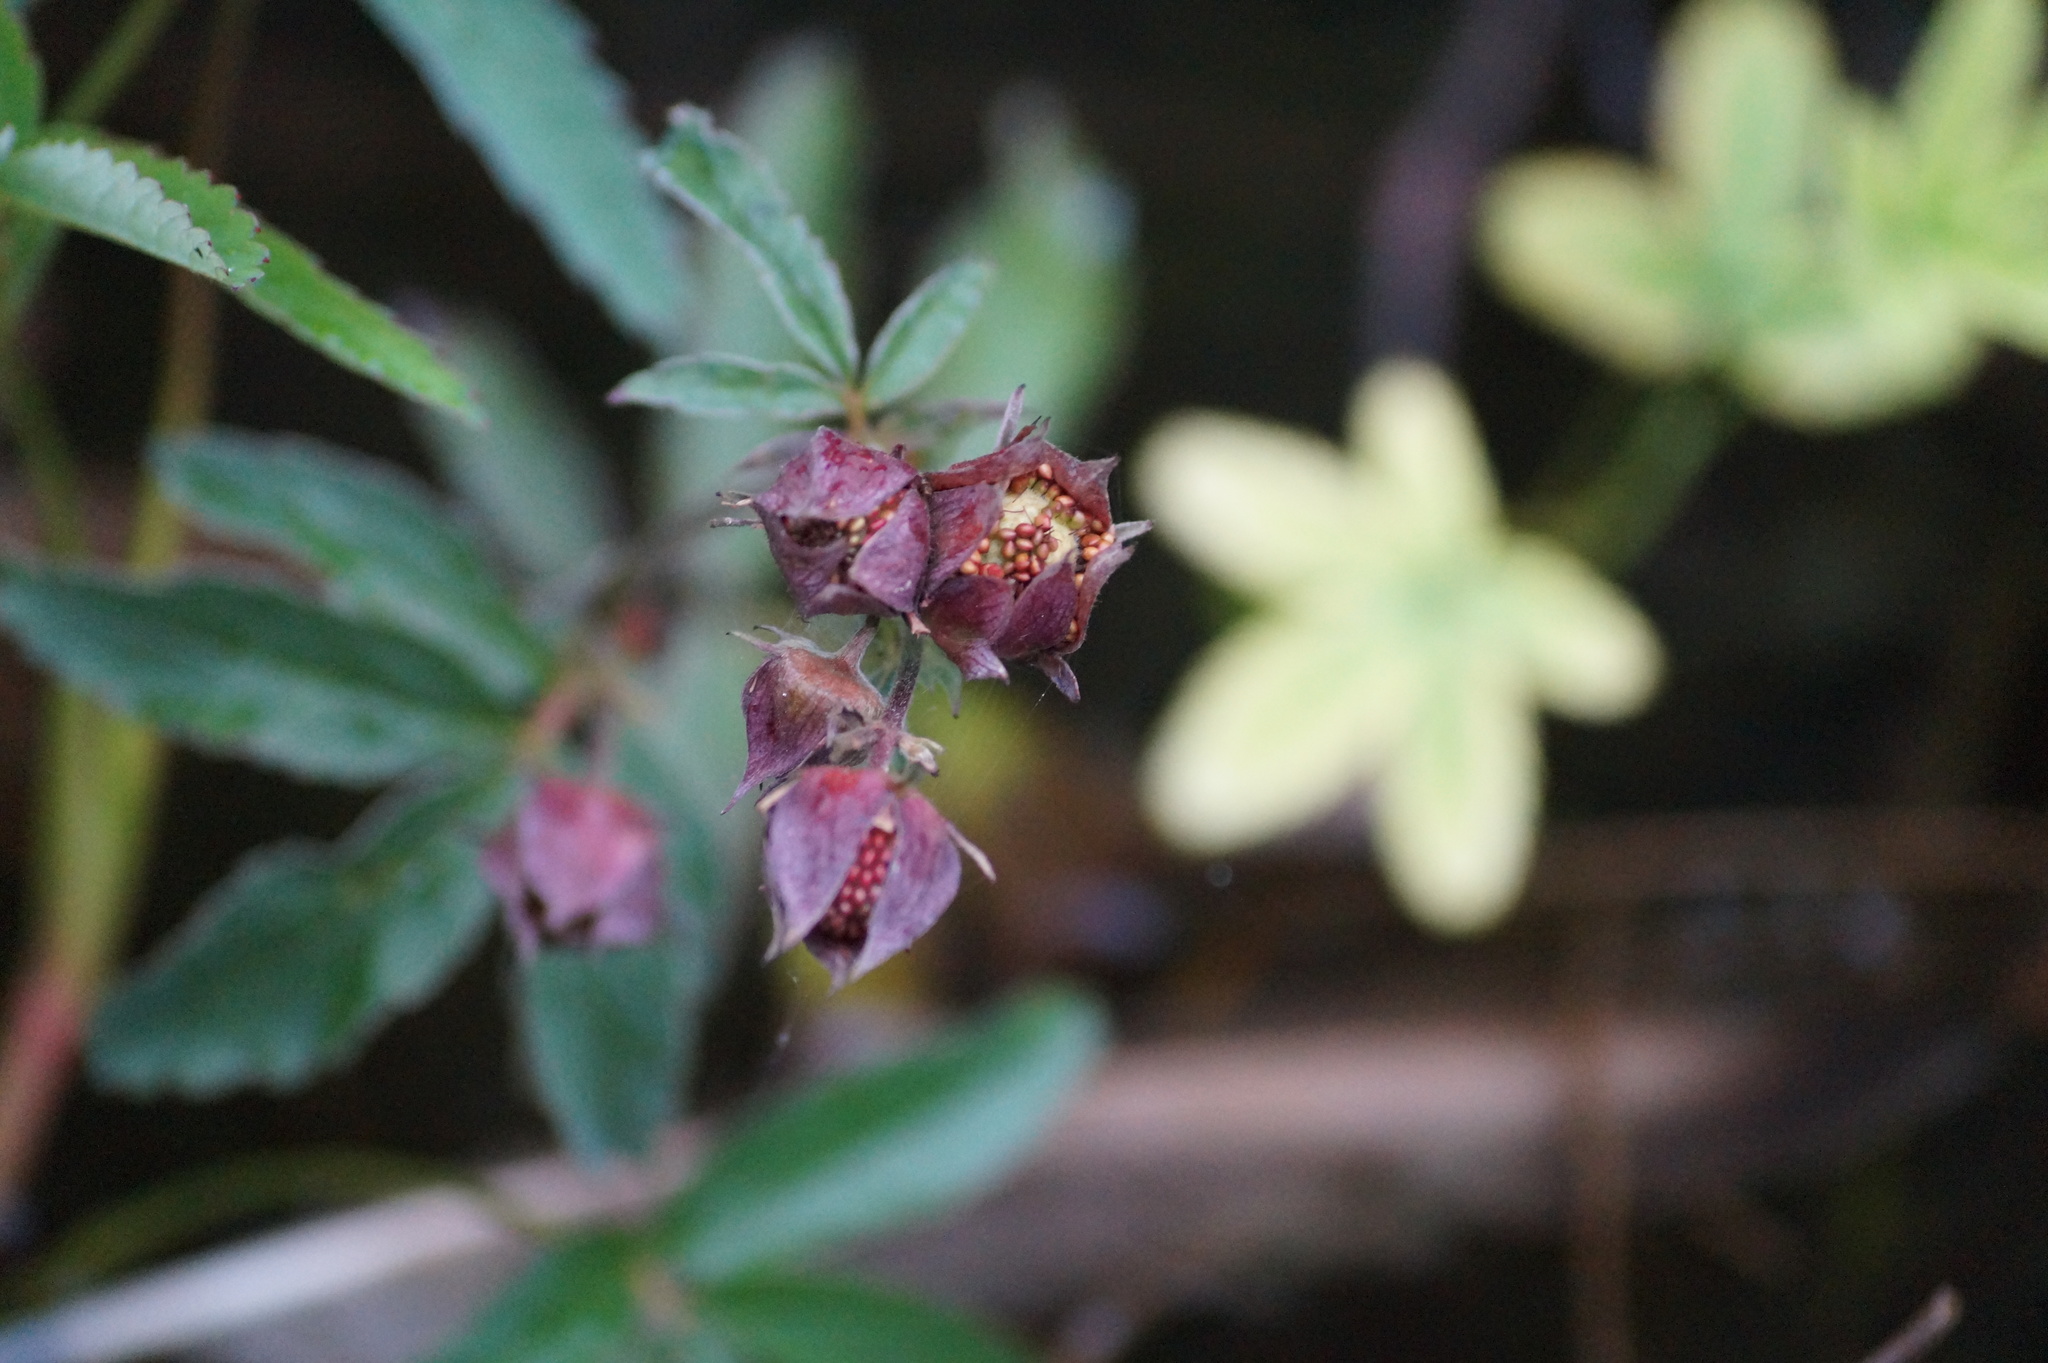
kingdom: Plantae
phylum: Tracheophyta
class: Magnoliopsida
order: Rosales
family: Rosaceae
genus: Comarum
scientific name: Comarum palustre
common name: Marsh cinquefoil
